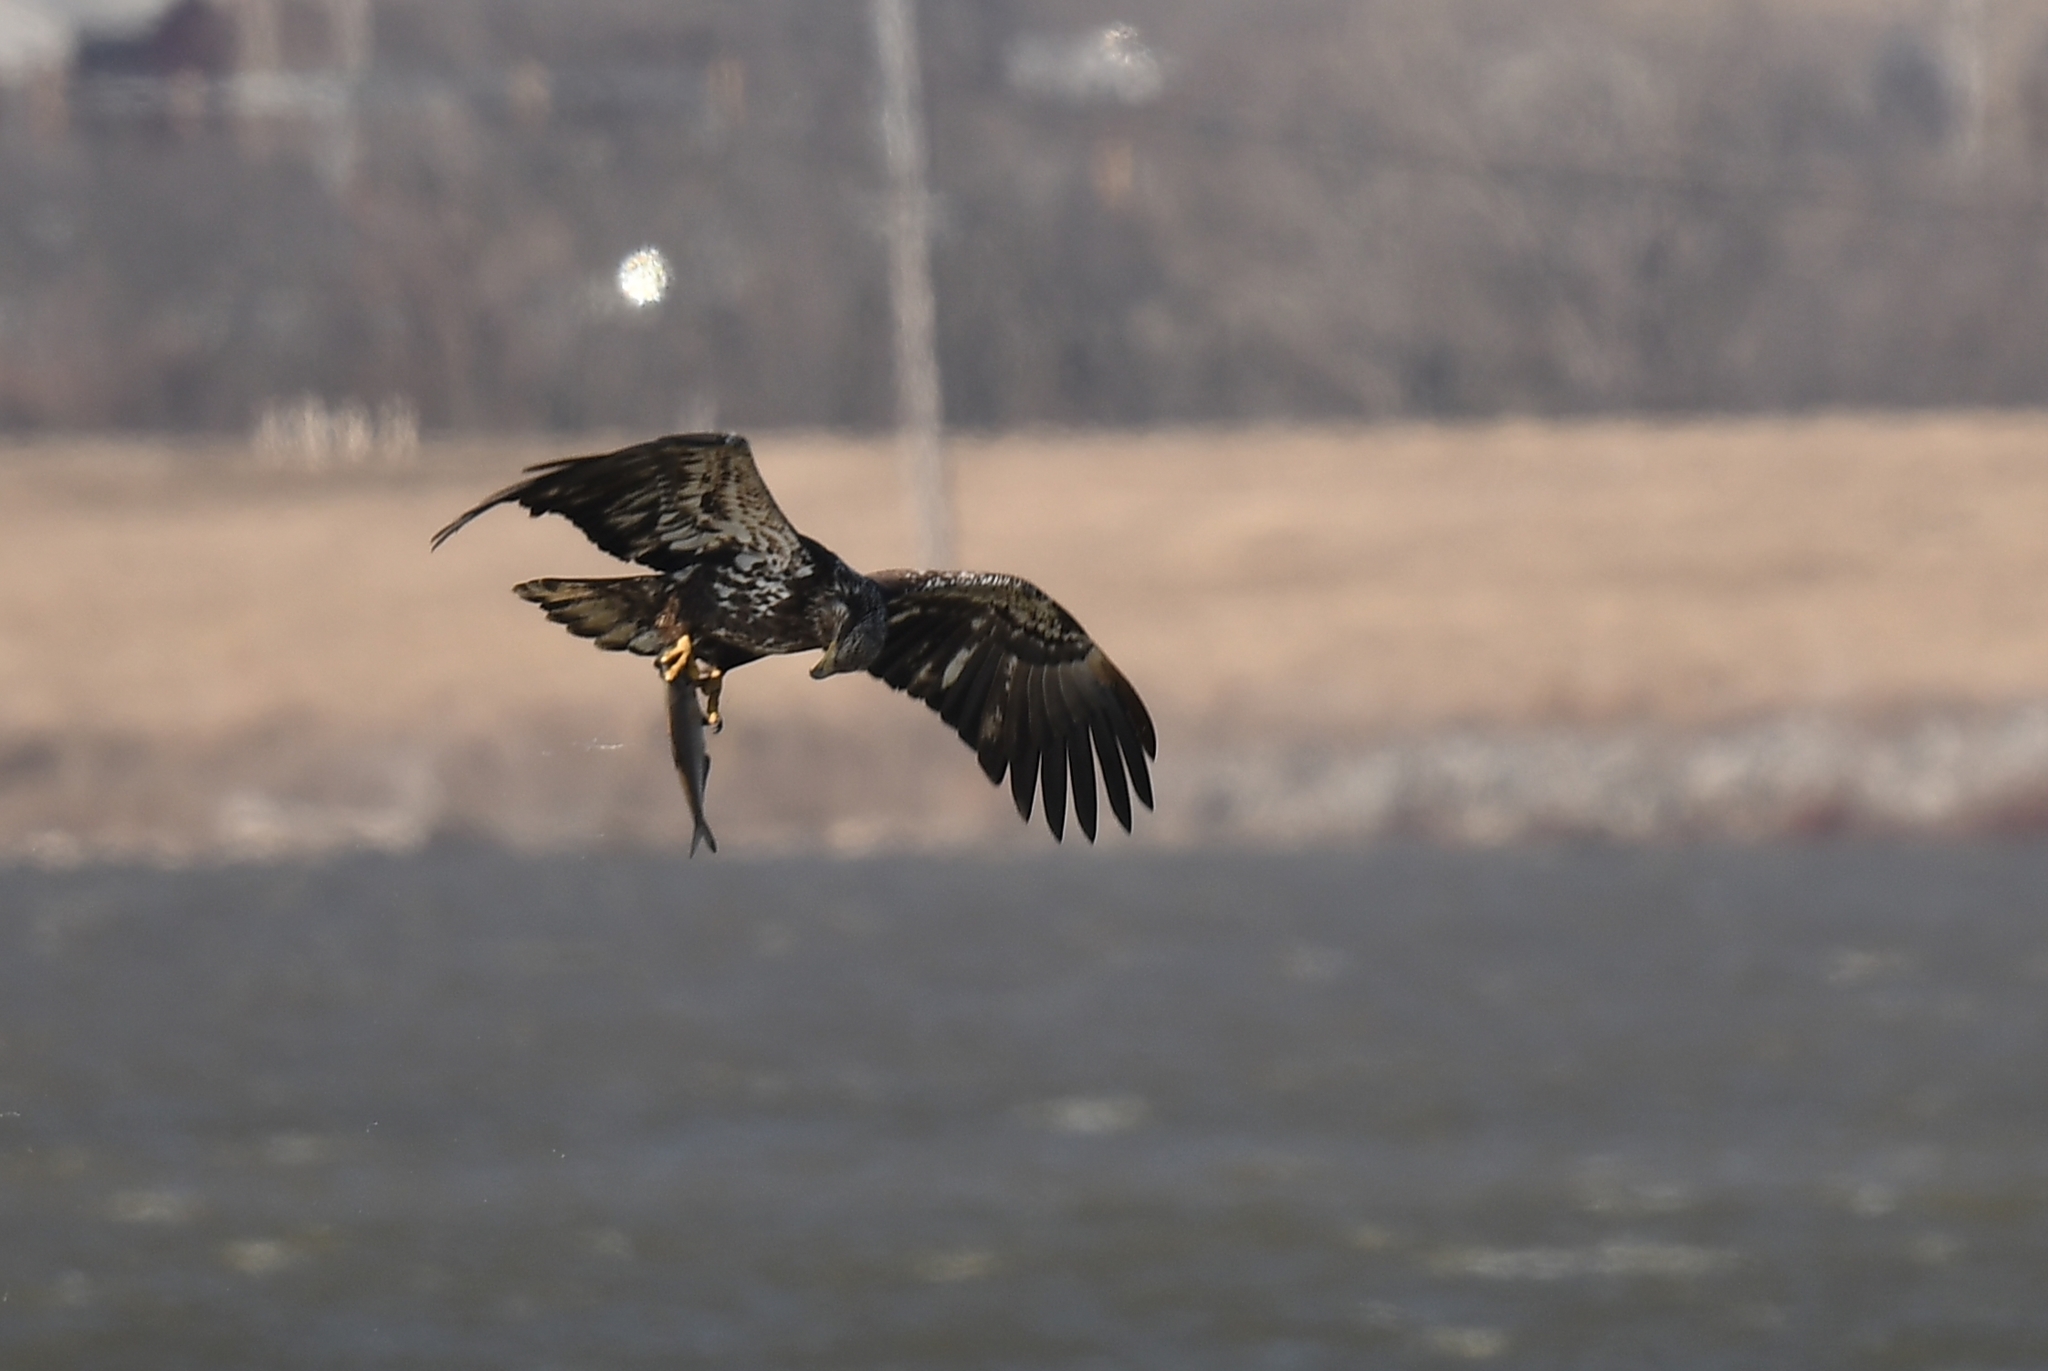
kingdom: Animalia
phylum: Chordata
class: Aves
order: Accipitriformes
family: Accipitridae
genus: Haliaeetus
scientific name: Haliaeetus leucocephalus
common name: Bald eagle
